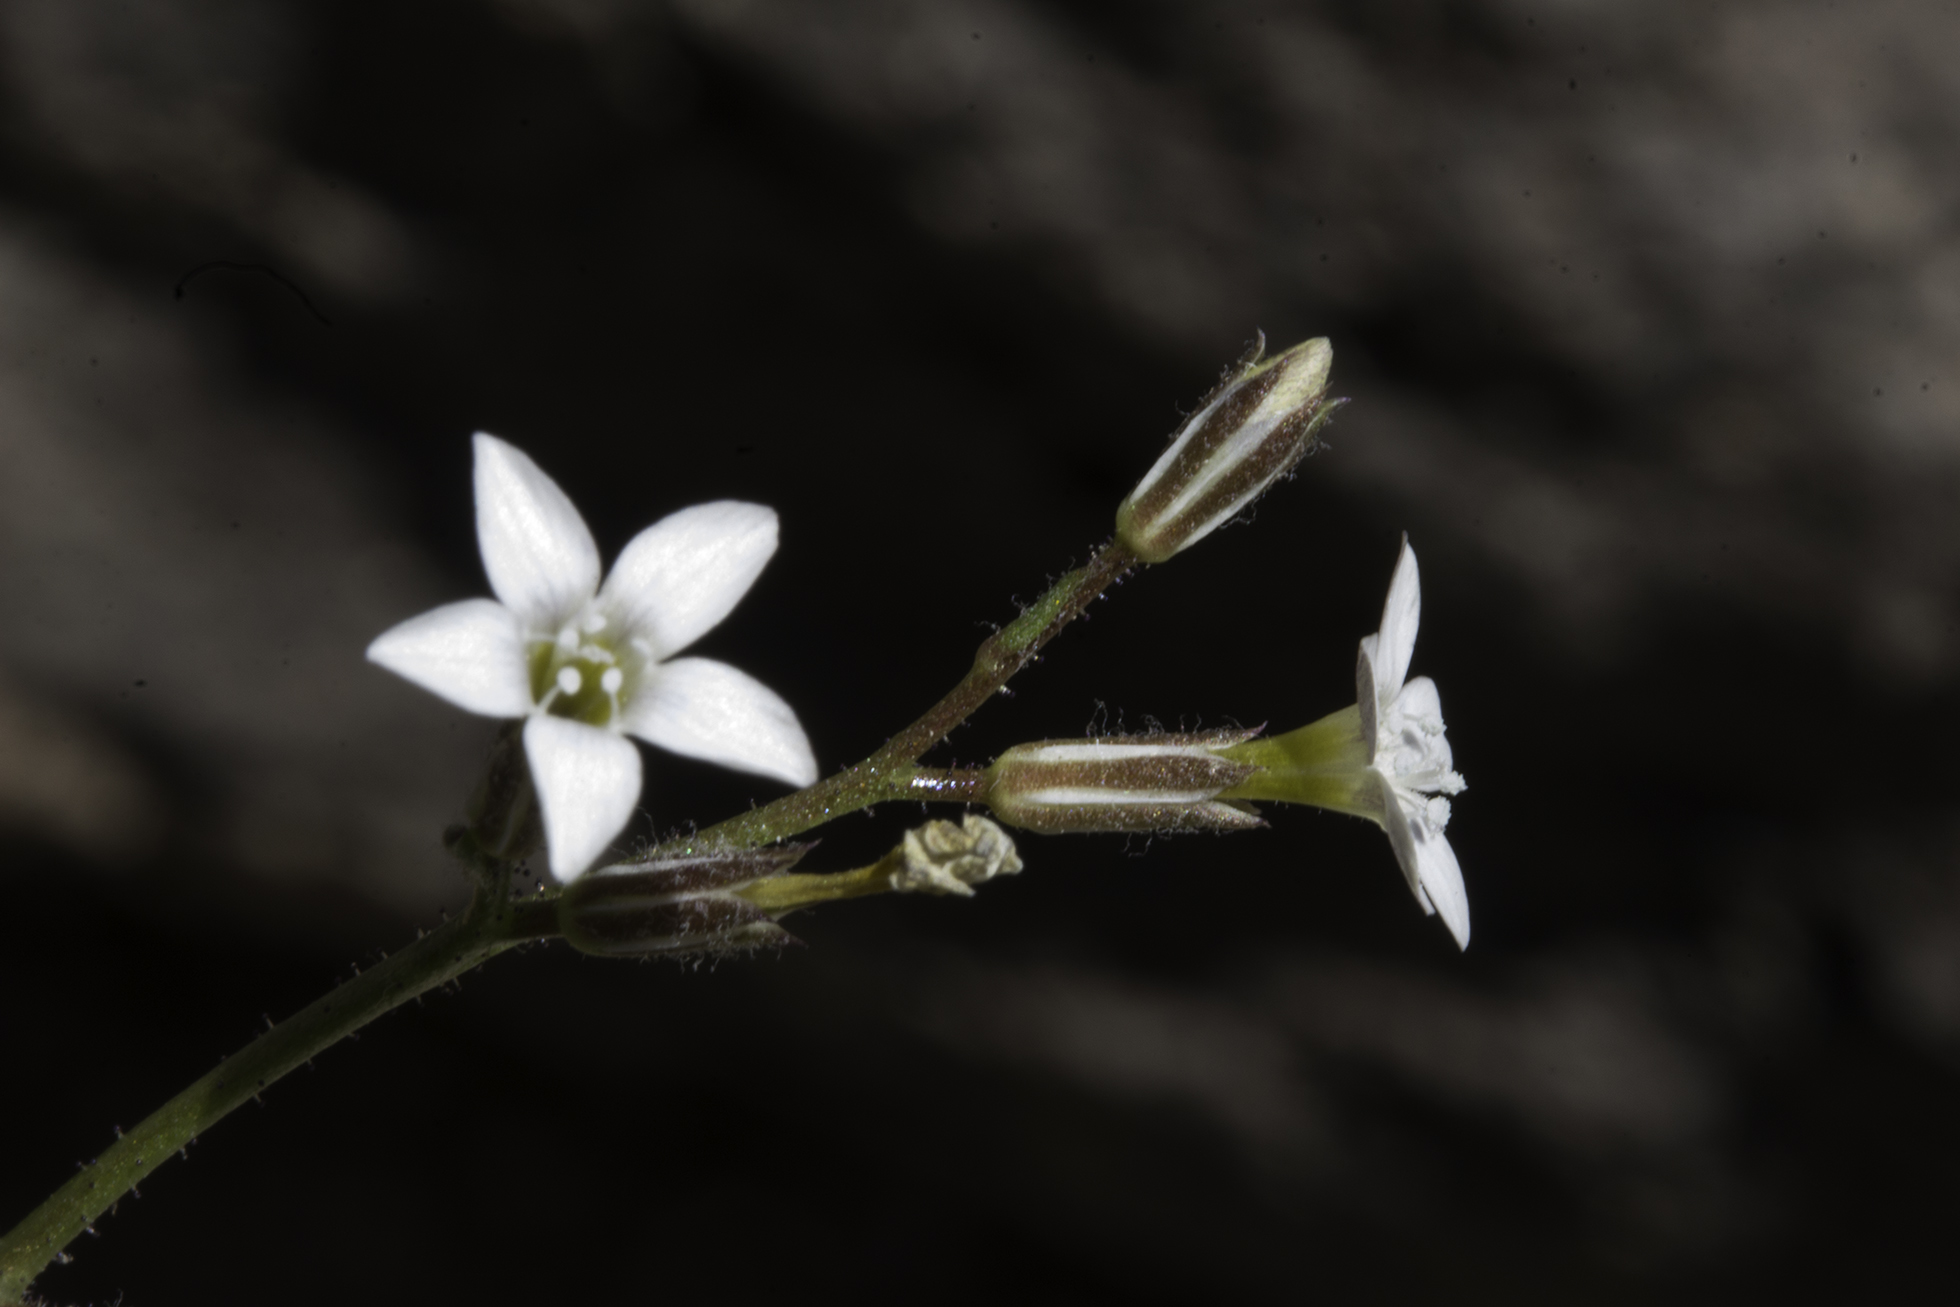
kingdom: Plantae
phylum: Tracheophyta
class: Magnoliopsida
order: Ericales
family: Polemoniaceae
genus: Gilia
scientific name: Gilia clokeyi
